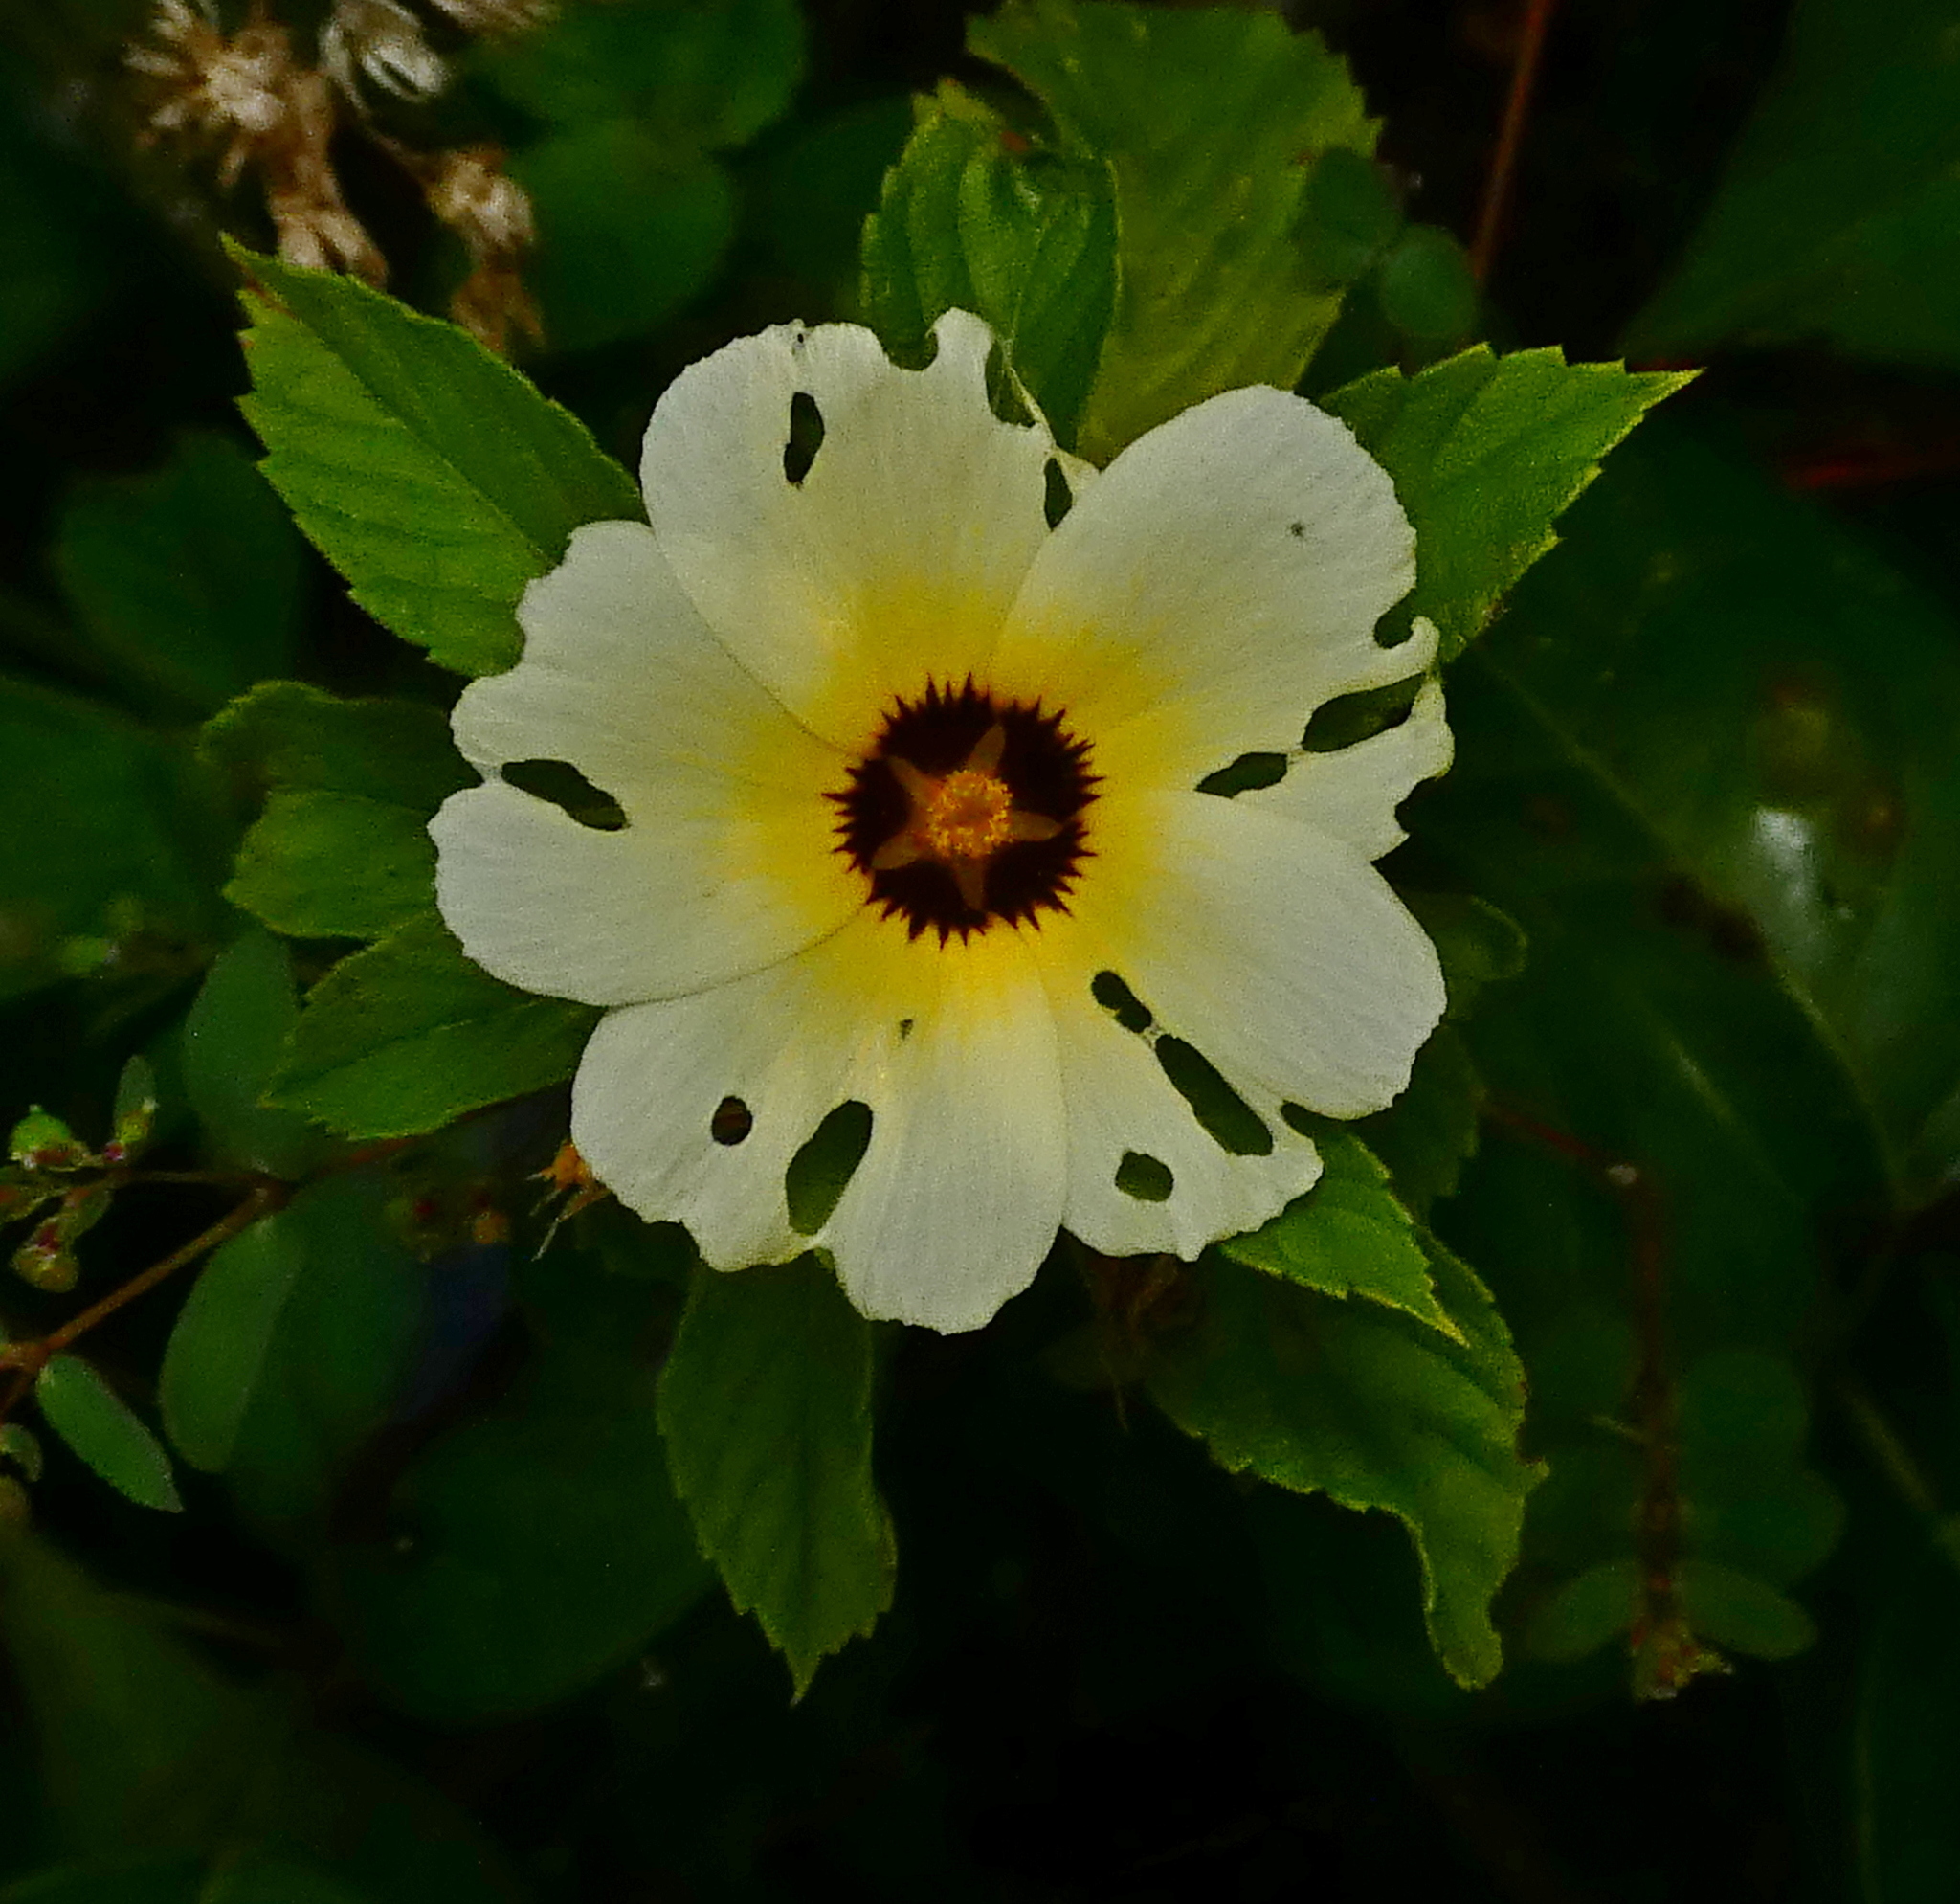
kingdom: Plantae
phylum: Tracheophyta
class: Magnoliopsida
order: Malpighiales
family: Turneraceae
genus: Turnera
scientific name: Turnera subulata
